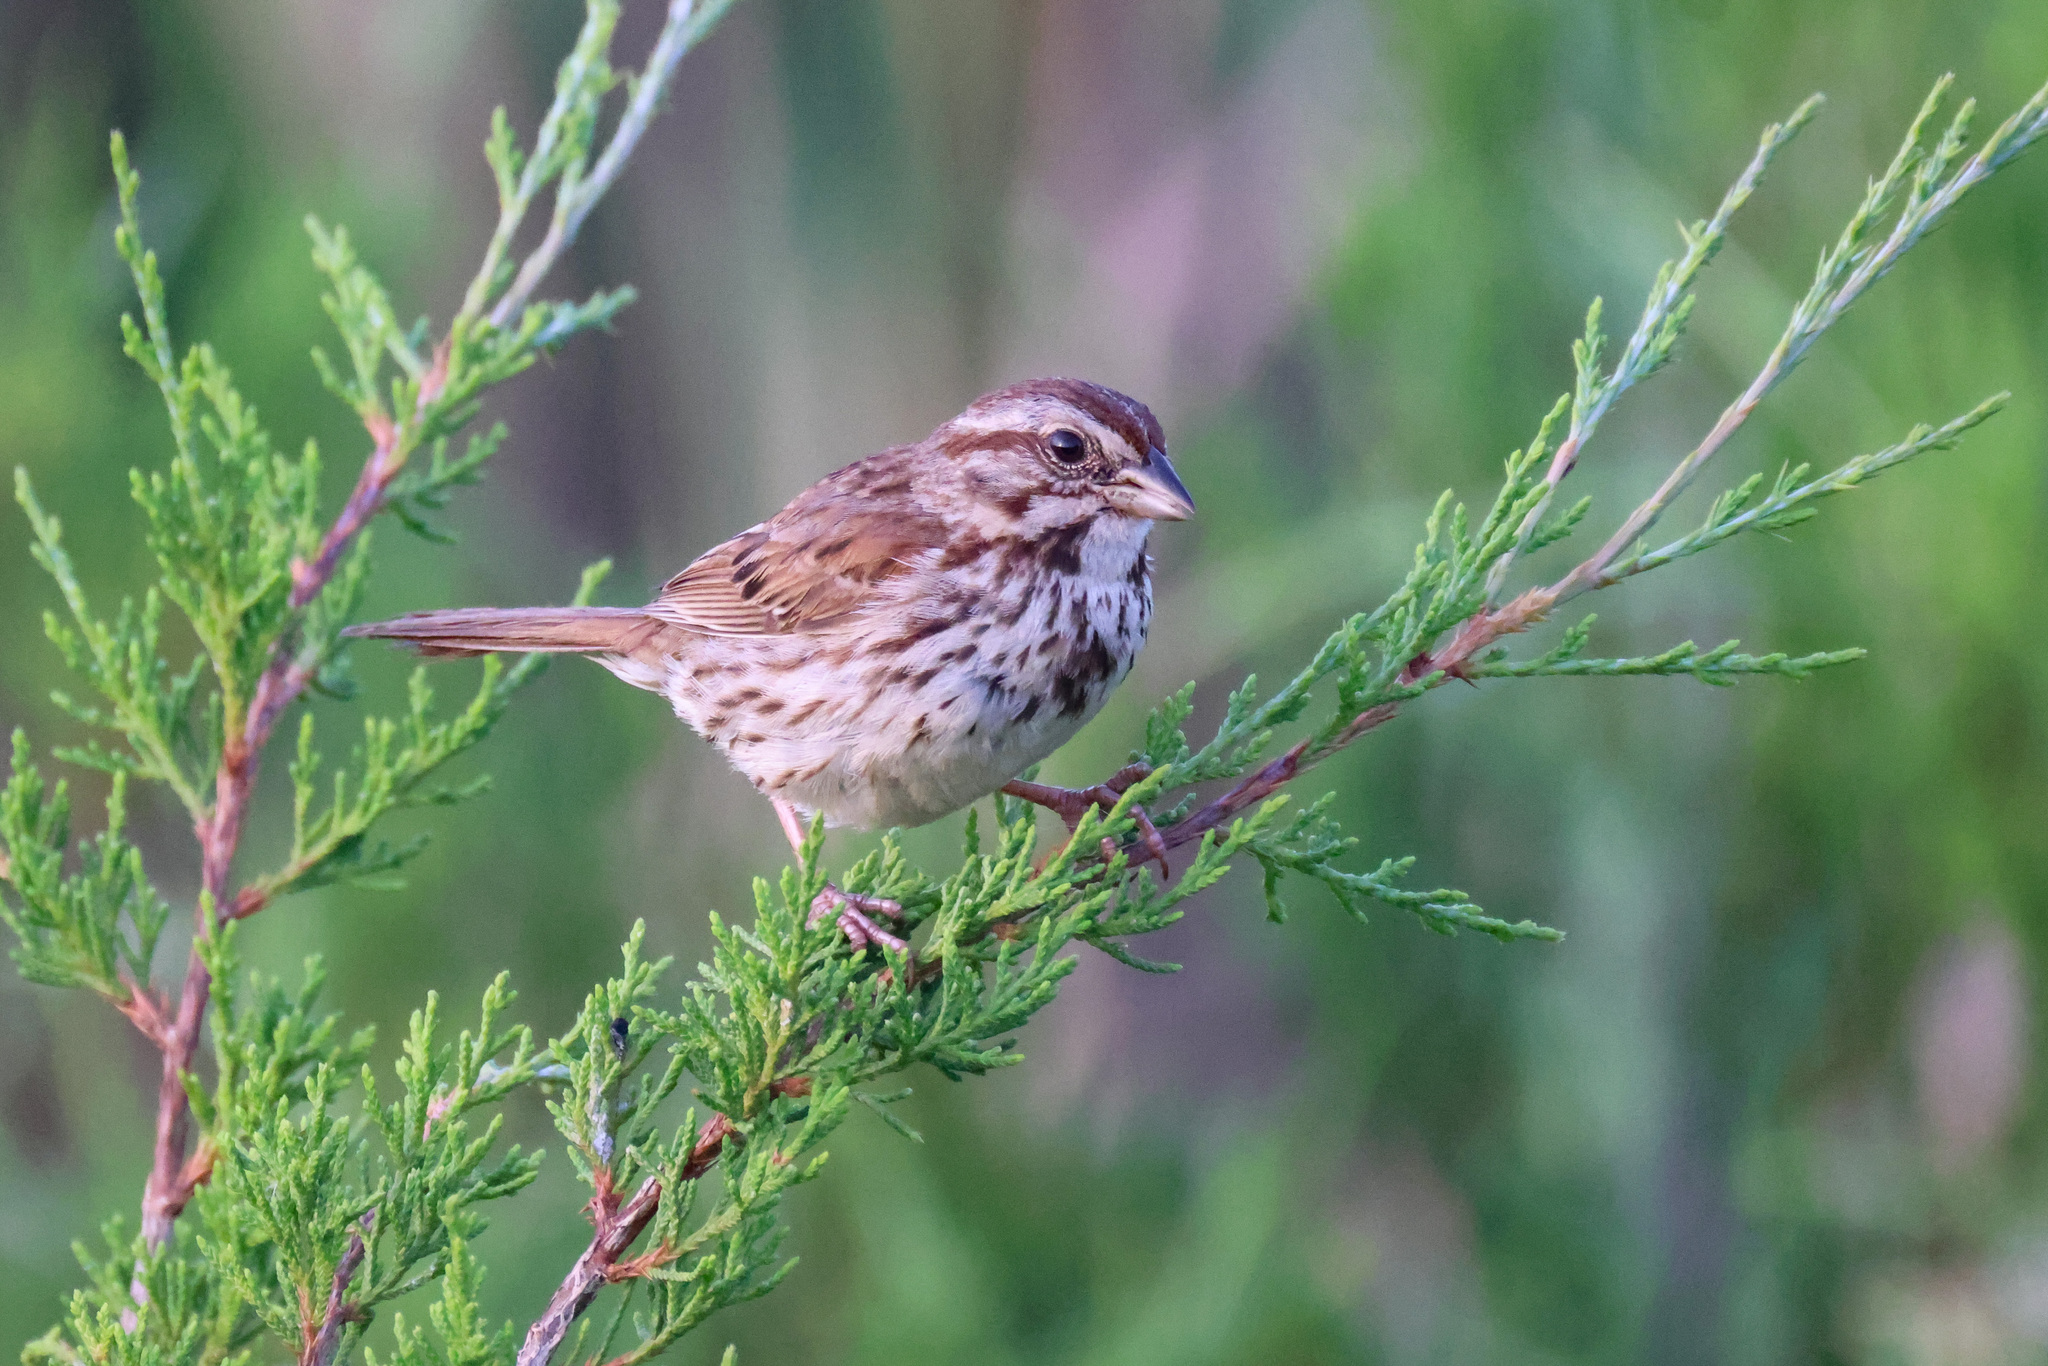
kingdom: Animalia
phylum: Chordata
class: Aves
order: Passeriformes
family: Passerellidae
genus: Melospiza
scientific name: Melospiza melodia
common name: Song sparrow
